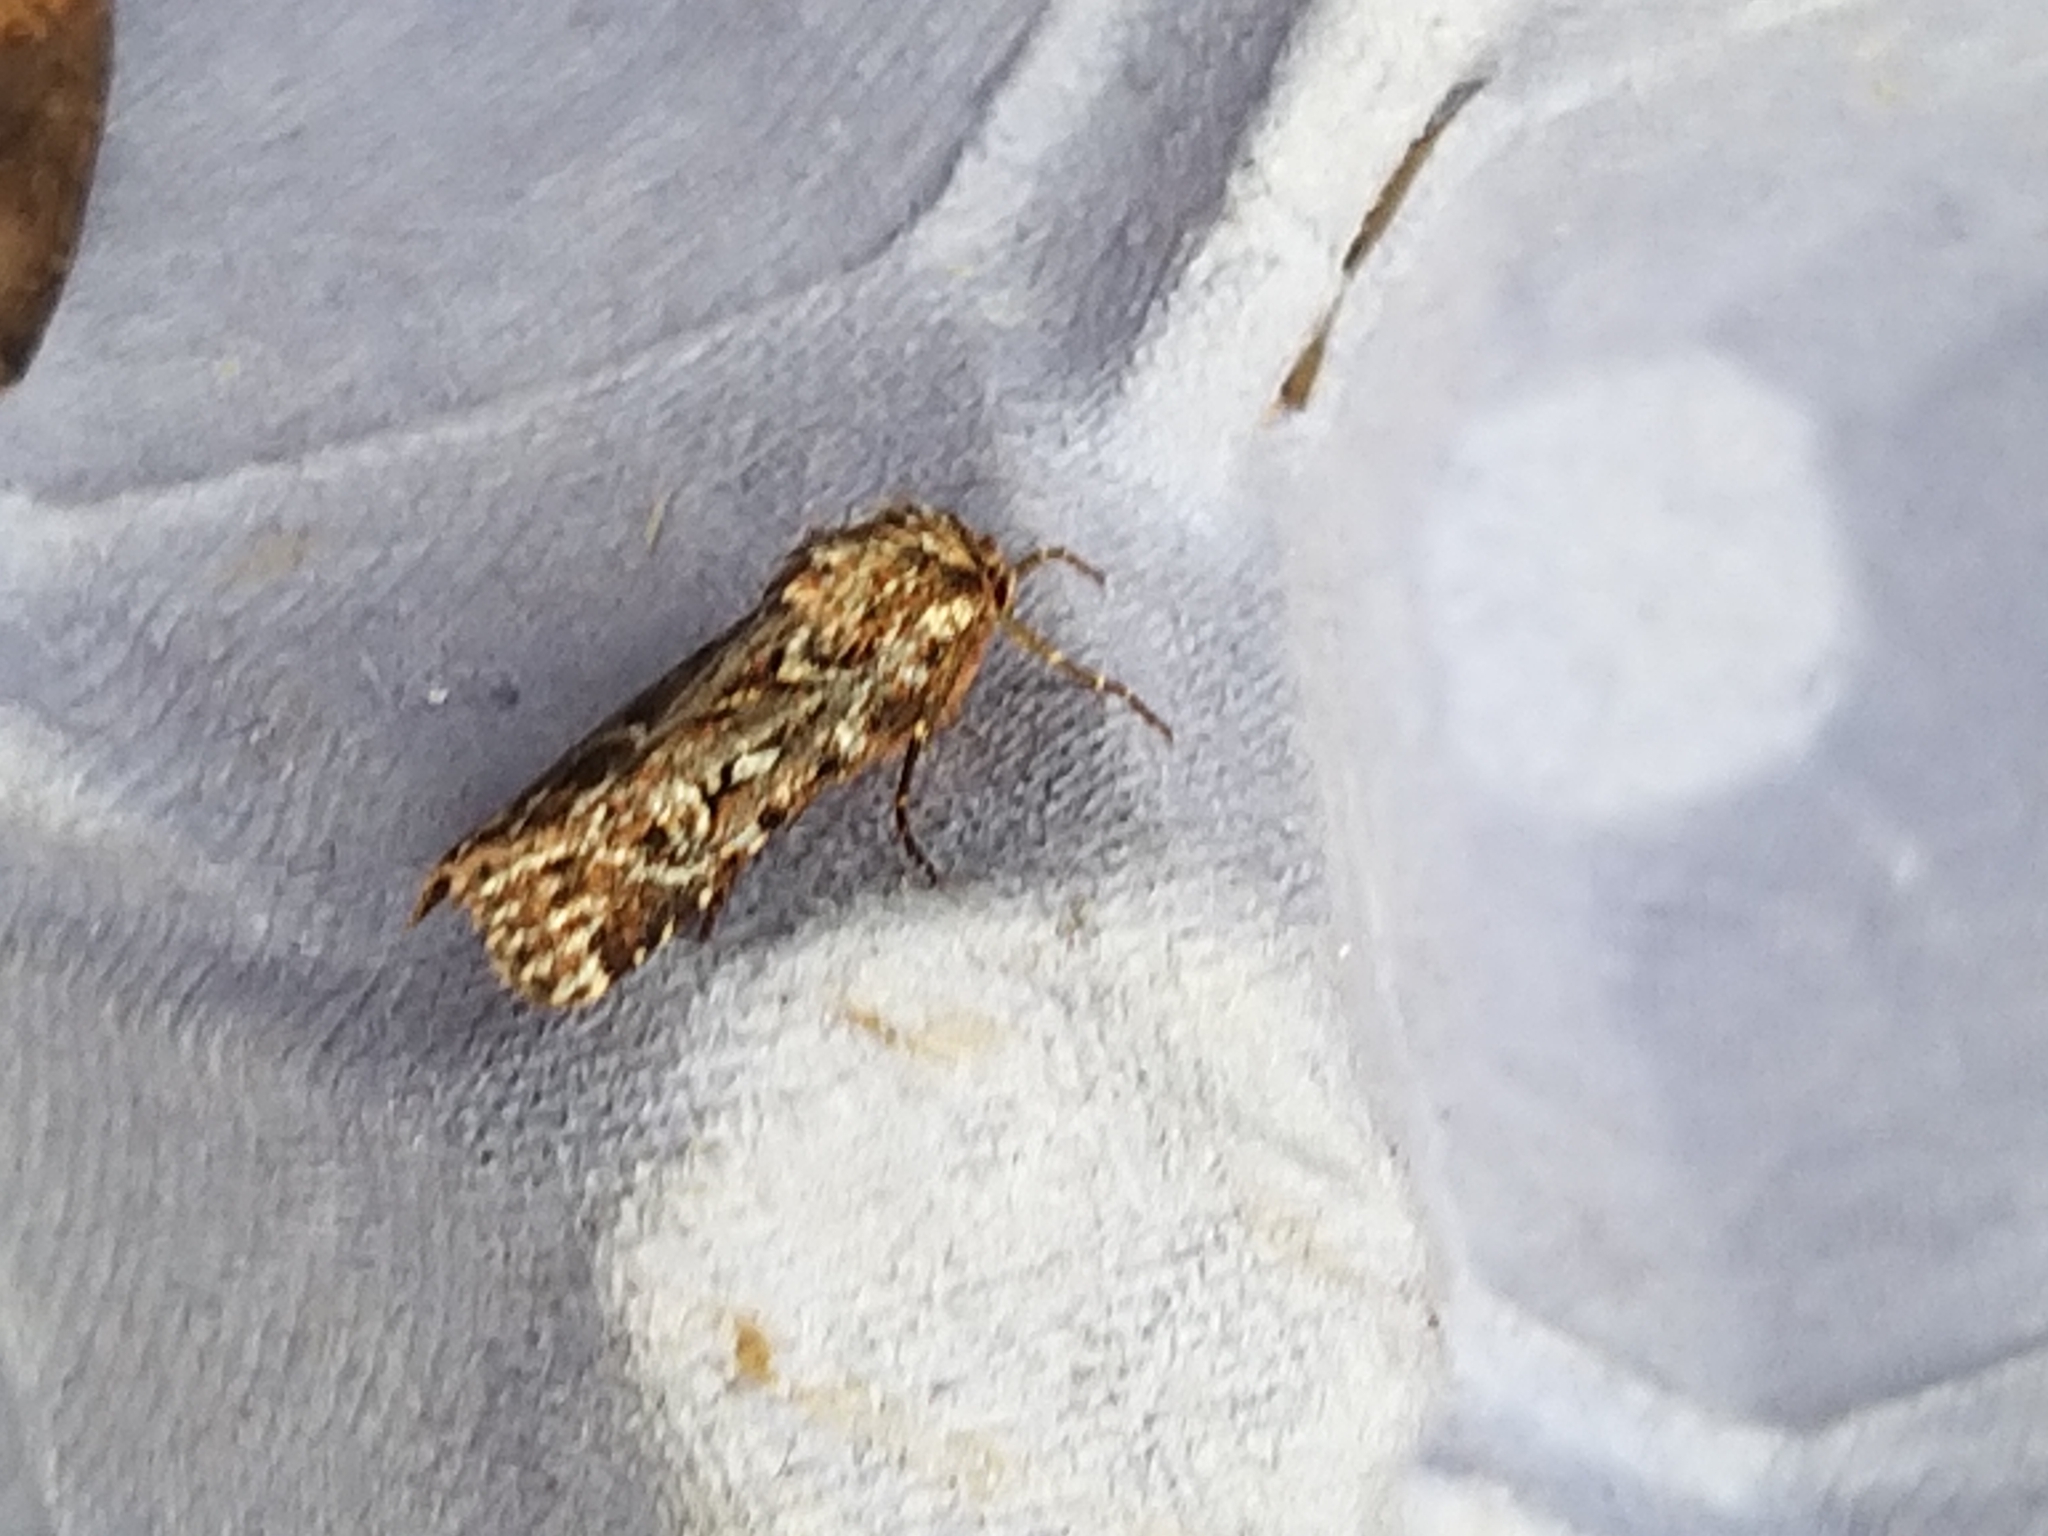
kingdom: Animalia
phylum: Arthropoda
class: Insecta
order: Lepidoptera
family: Noctuidae
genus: Lycophotia
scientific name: Lycophotia porphyrea
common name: True lover's knot
